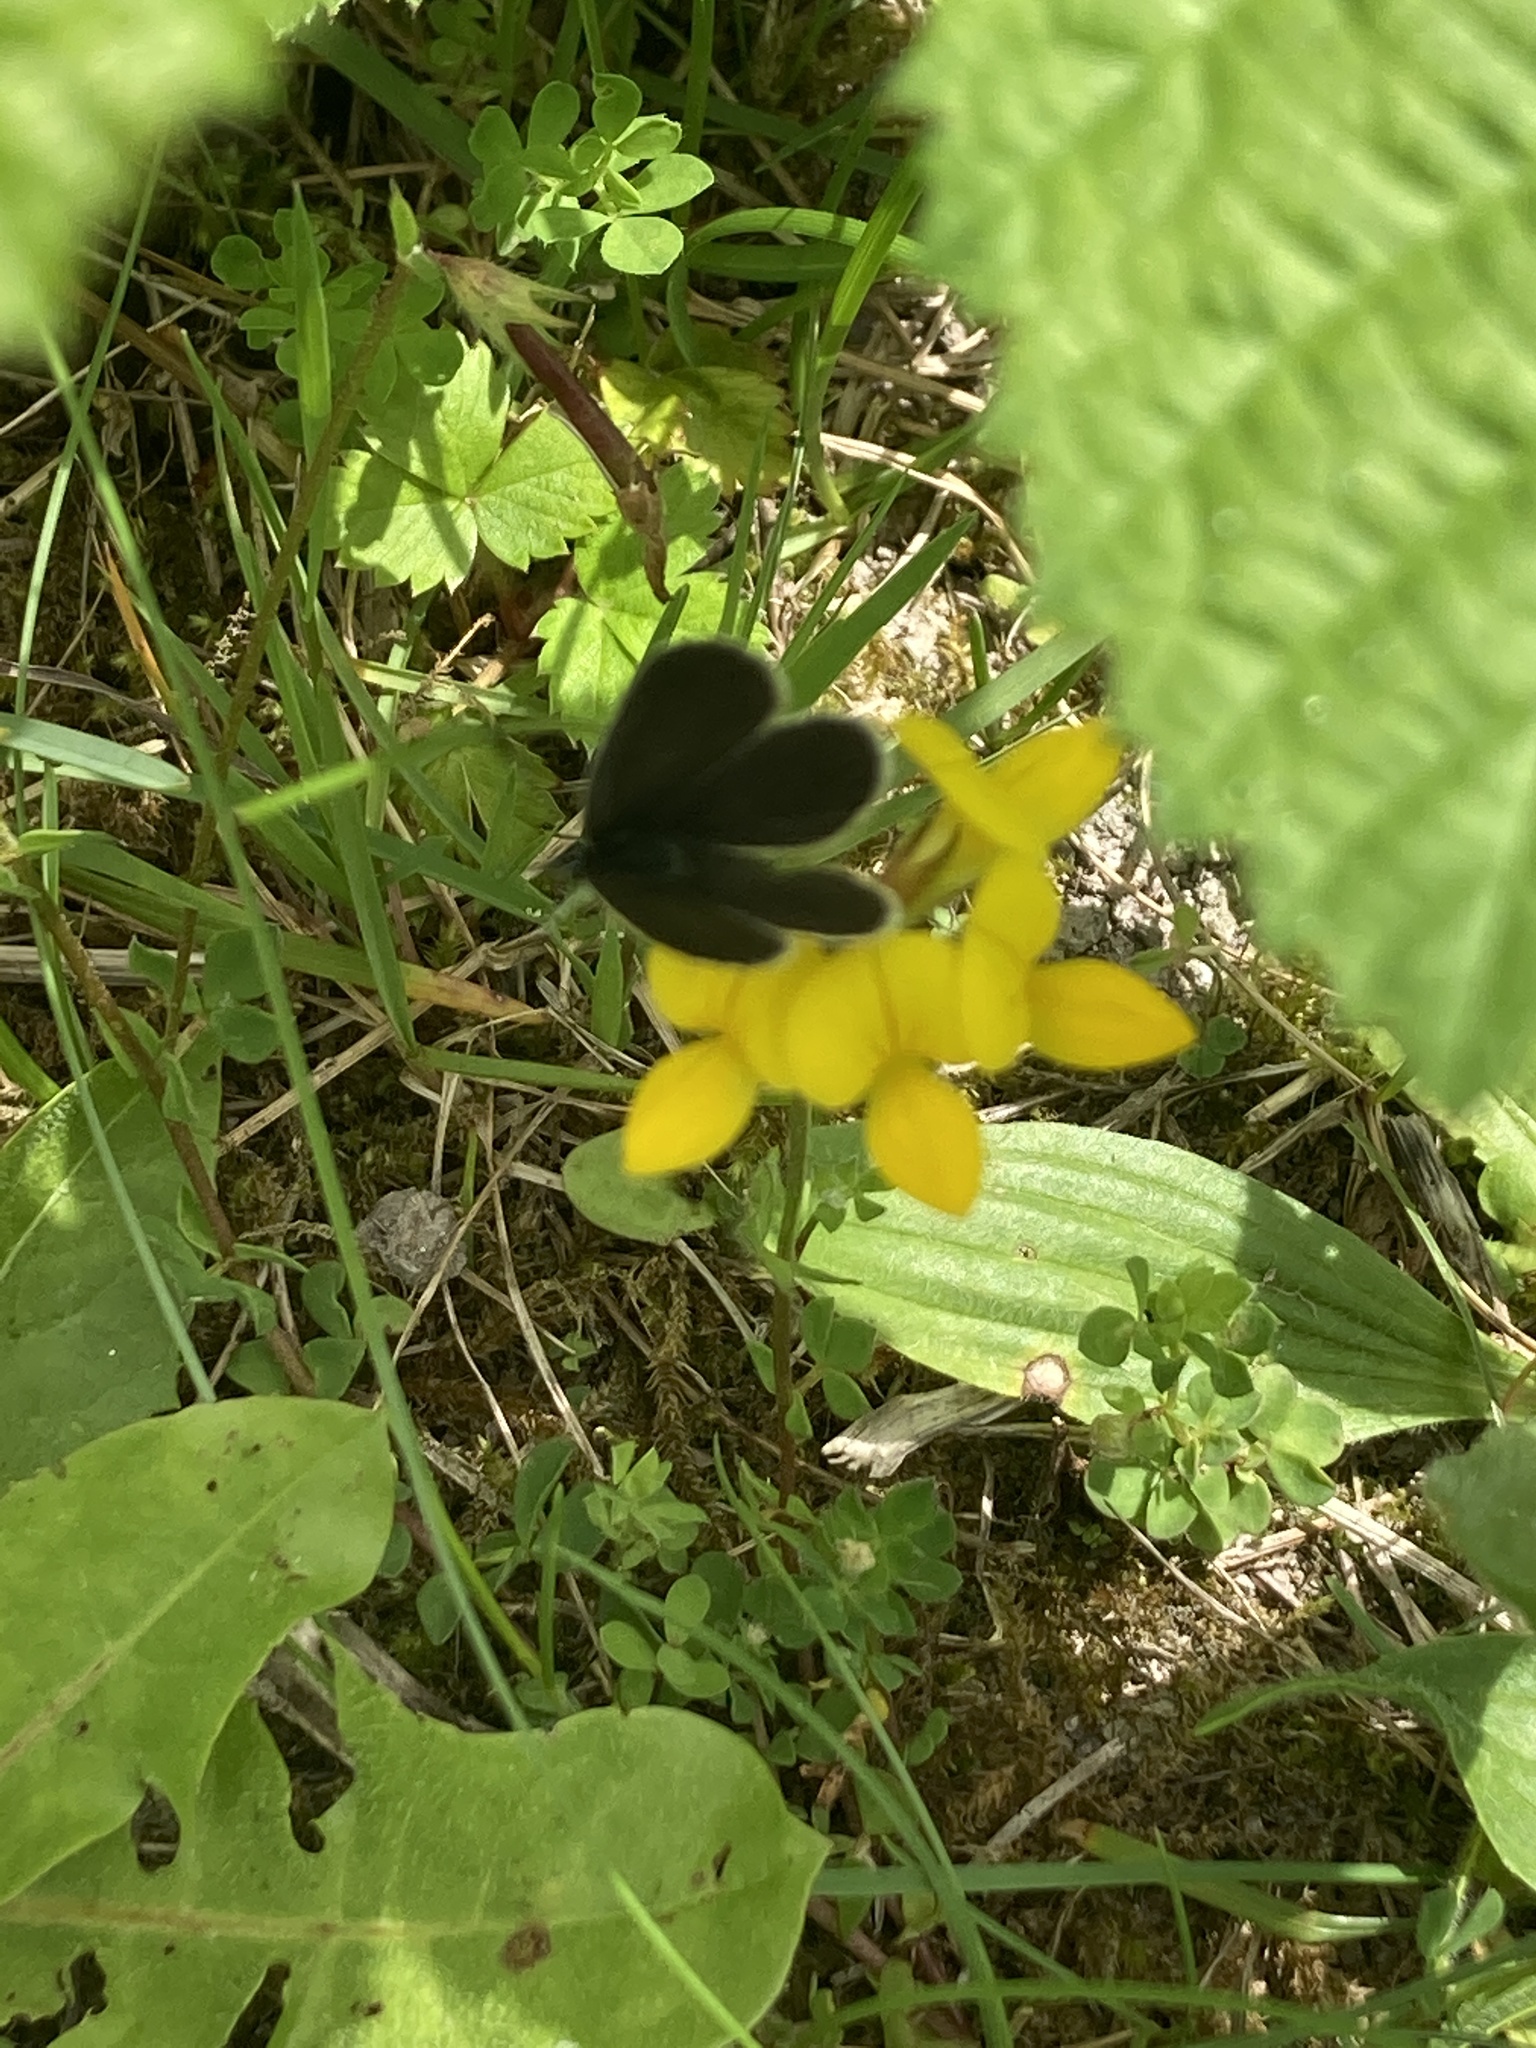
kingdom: Animalia
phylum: Arthropoda
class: Insecta
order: Lepidoptera
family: Lycaenidae
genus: Cupido
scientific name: Cupido minimus
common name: Small blue
